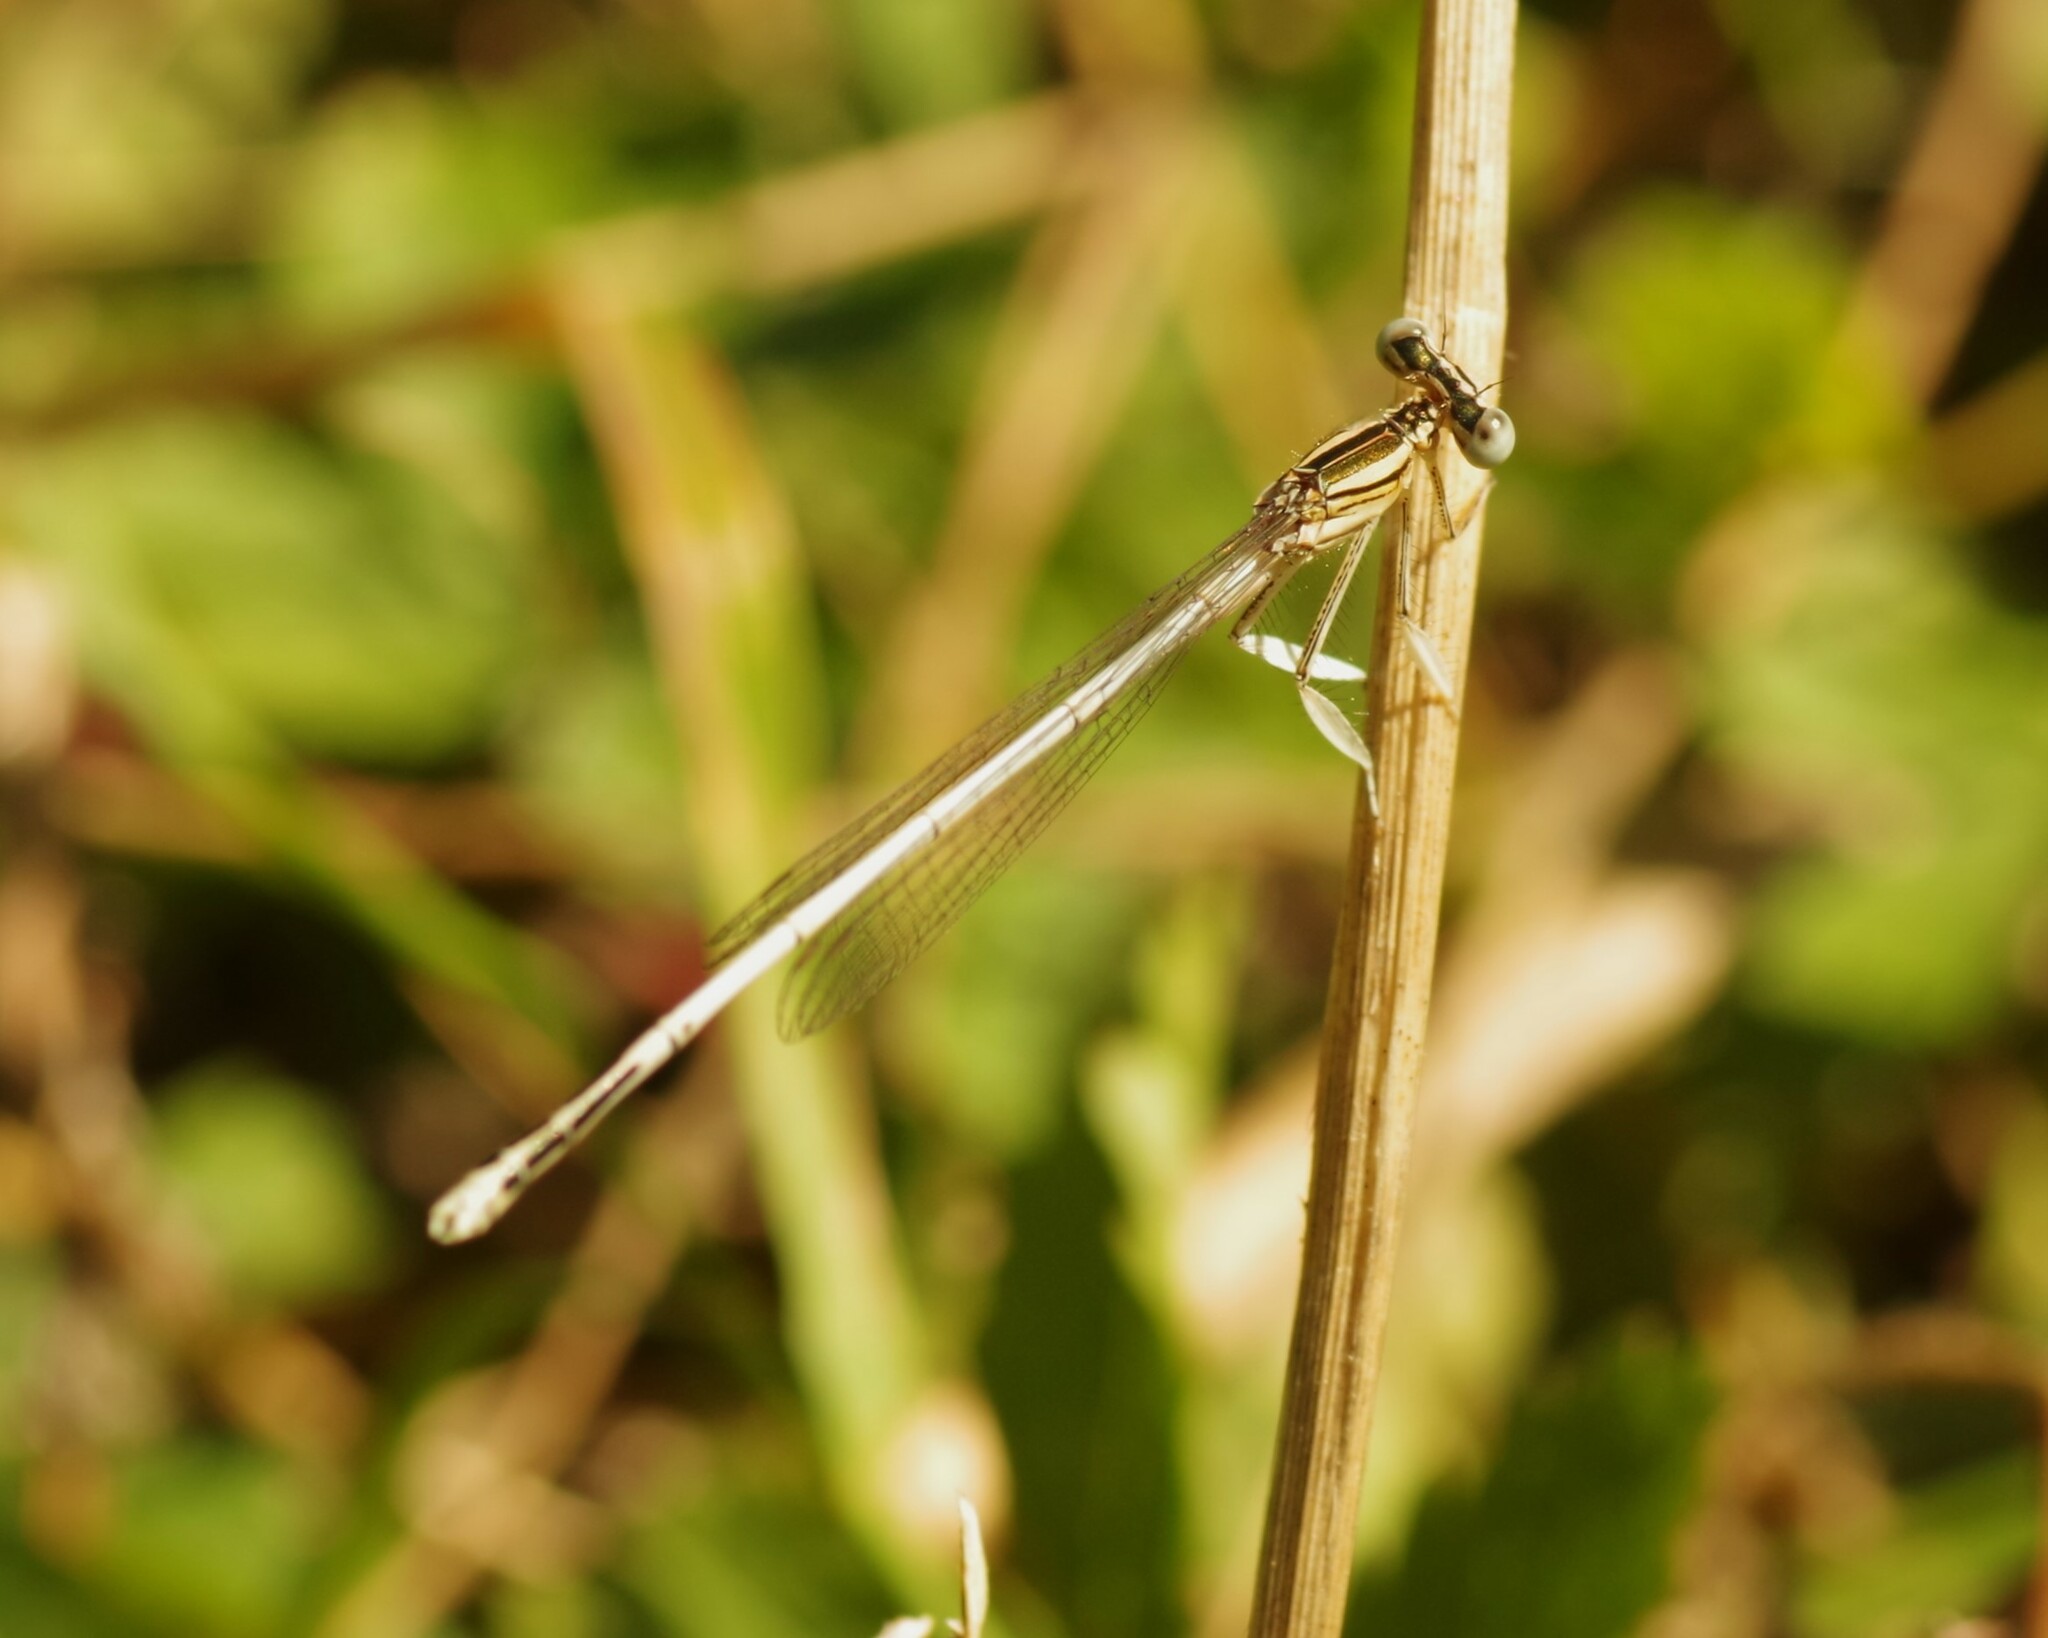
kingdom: Animalia
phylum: Arthropoda
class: Insecta
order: Odonata
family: Platycnemididae
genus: Platycnemis
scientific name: Platycnemis latipes
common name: White featherleg
